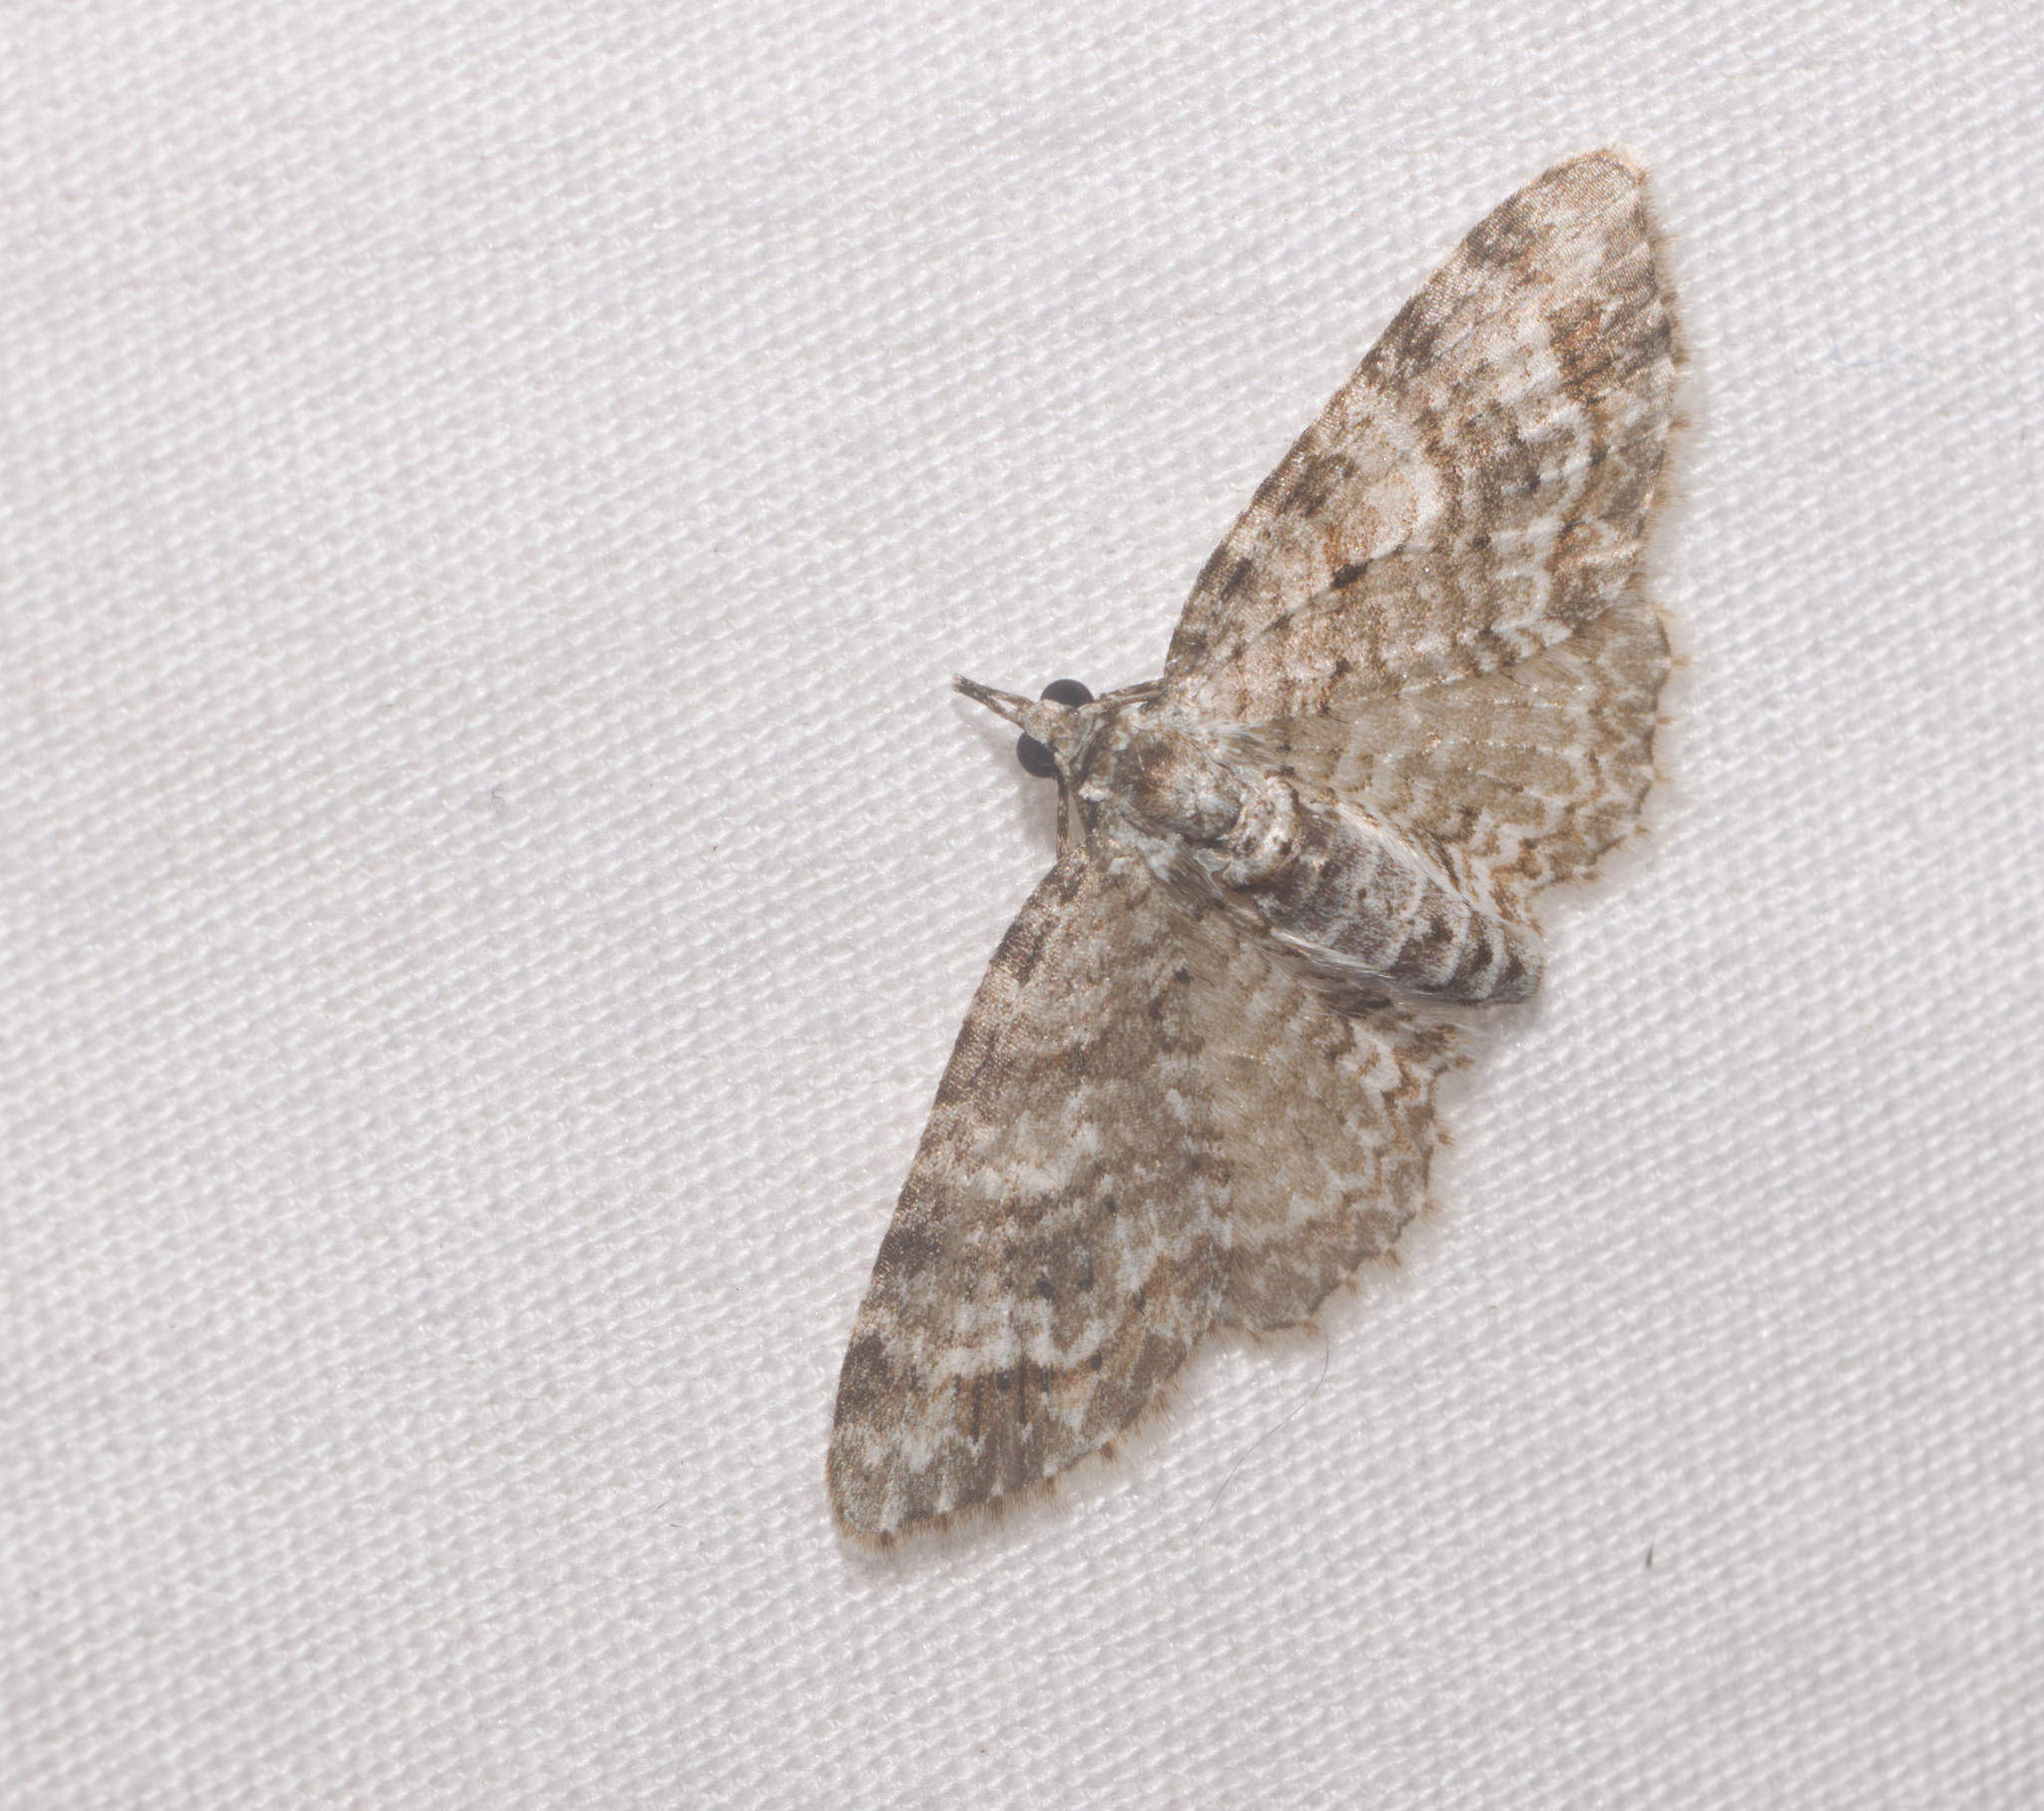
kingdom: Animalia
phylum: Arthropoda
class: Insecta
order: Lepidoptera
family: Geometridae
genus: Eupithecia
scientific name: Eupithecia monticolens
